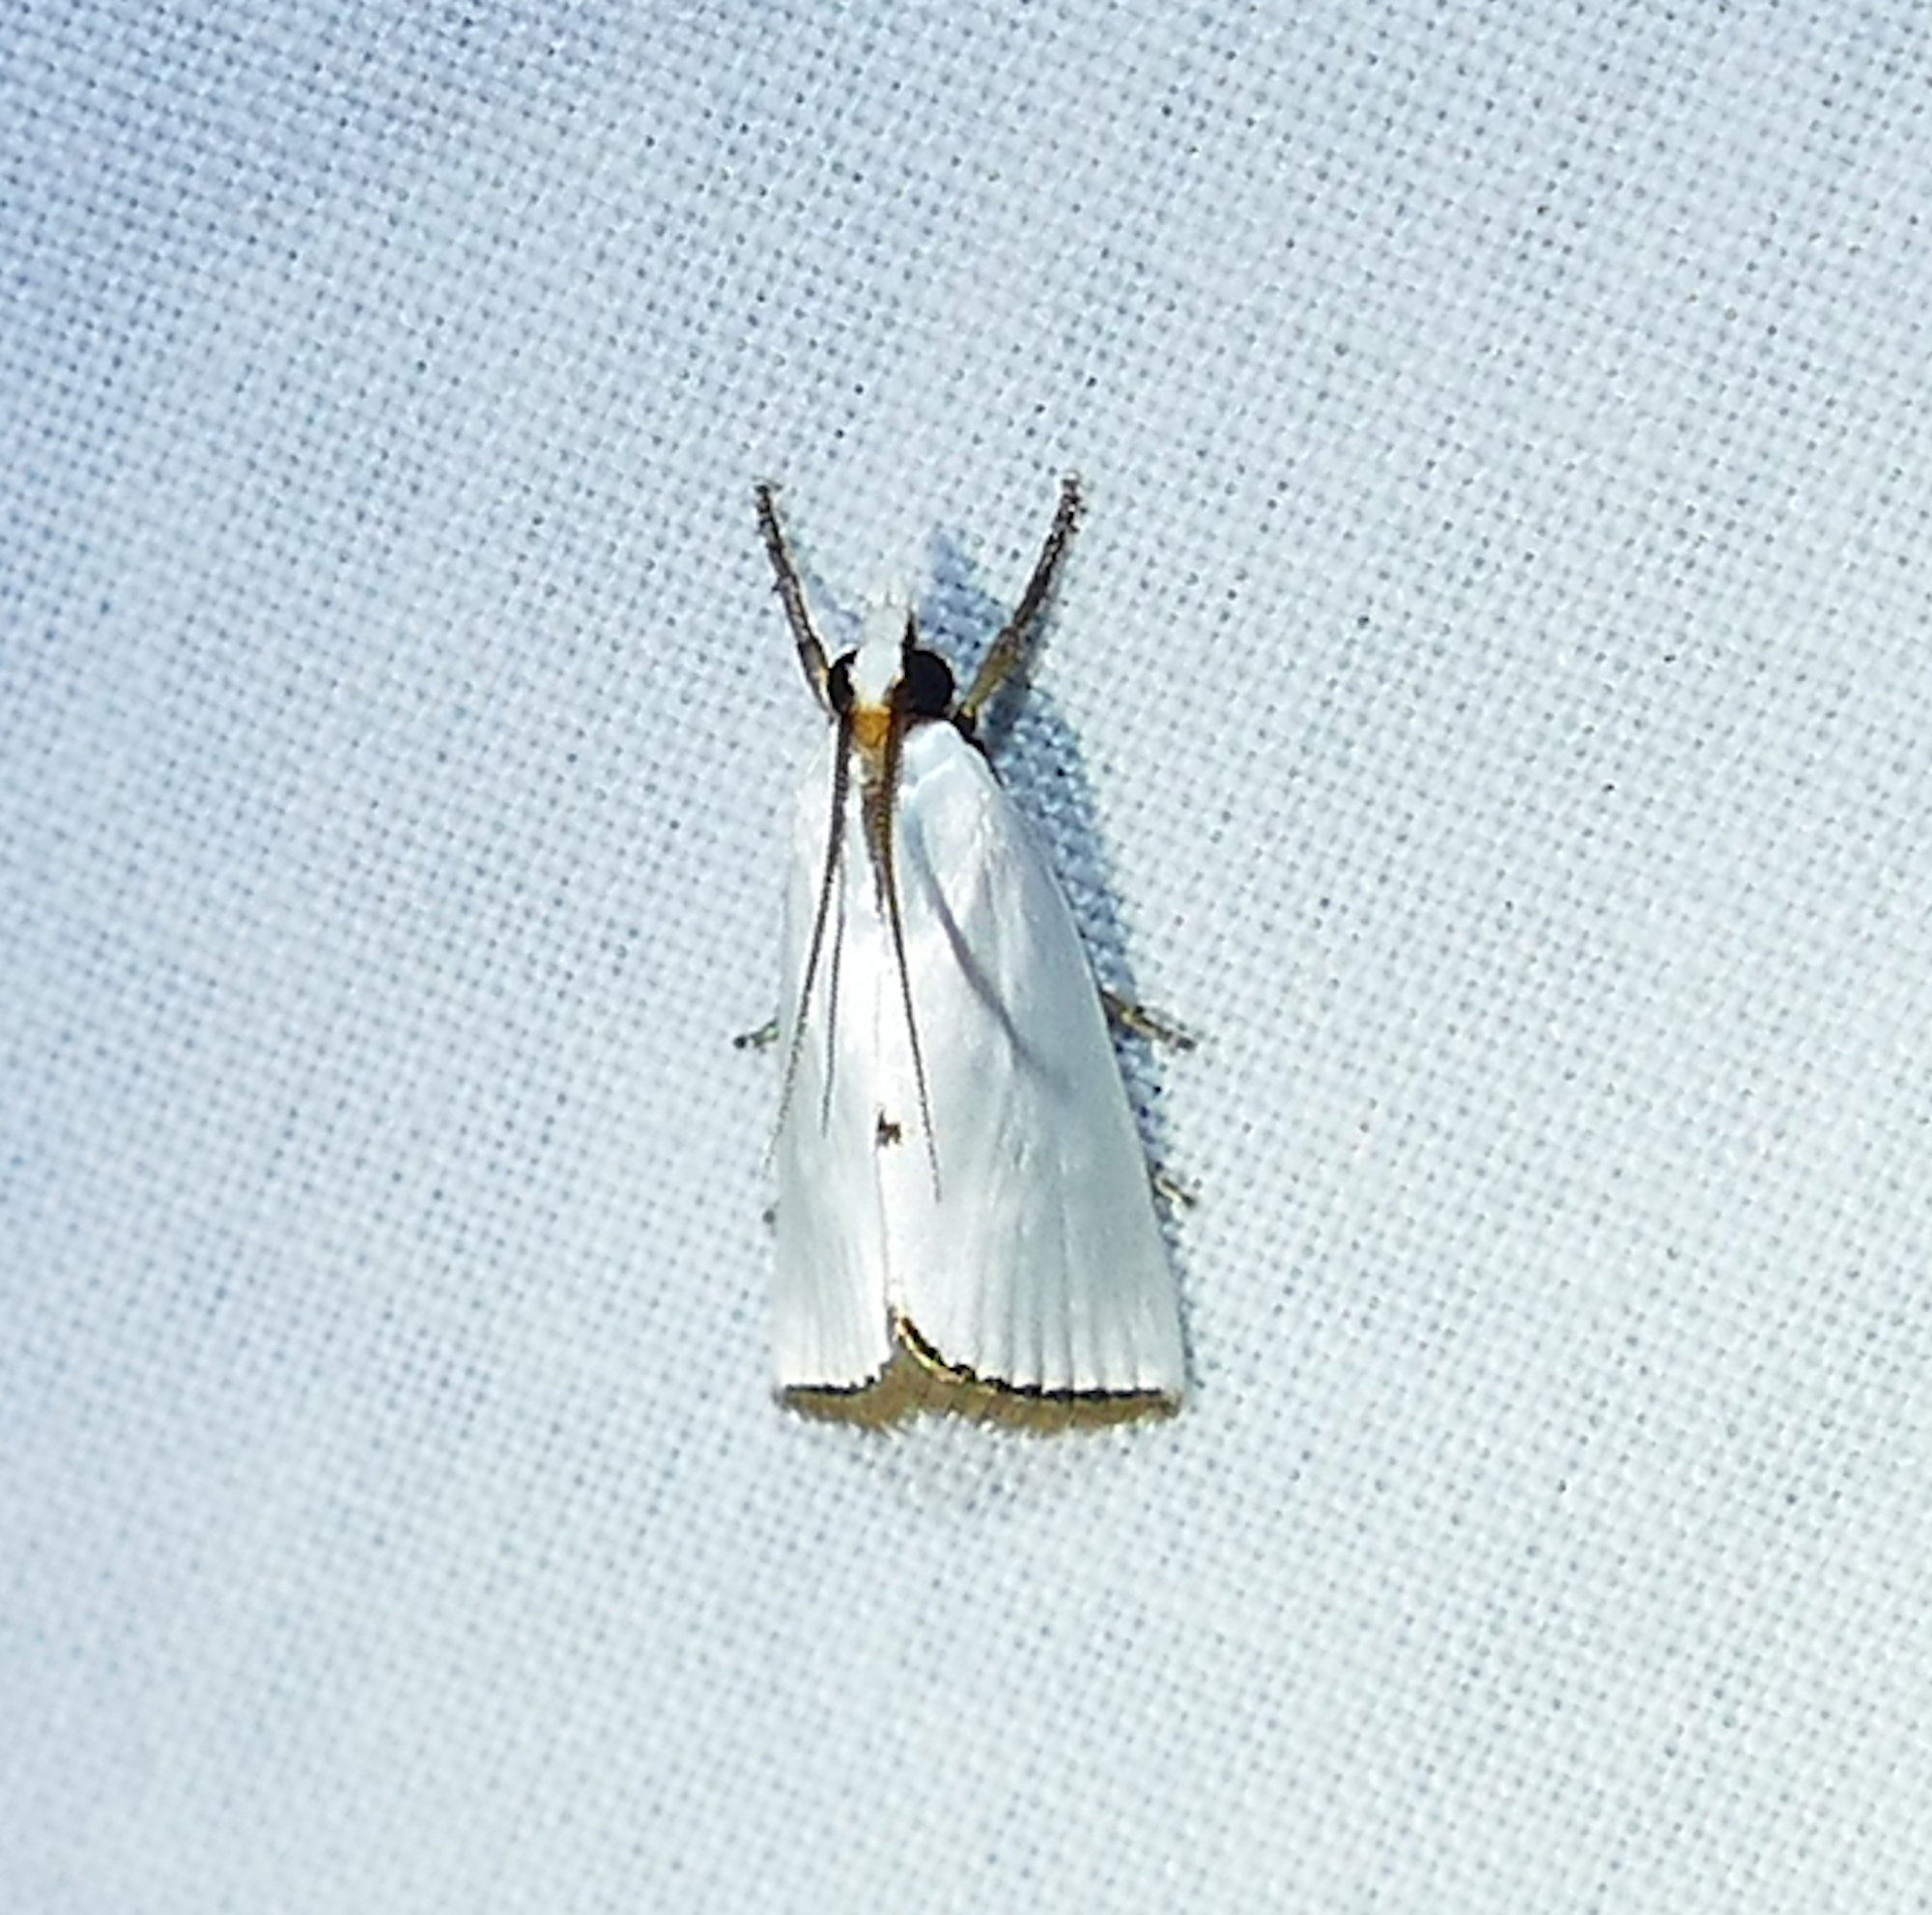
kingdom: Animalia
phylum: Arthropoda
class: Insecta
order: Lepidoptera
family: Crambidae
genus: Argyria
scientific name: Argyria nivalis
